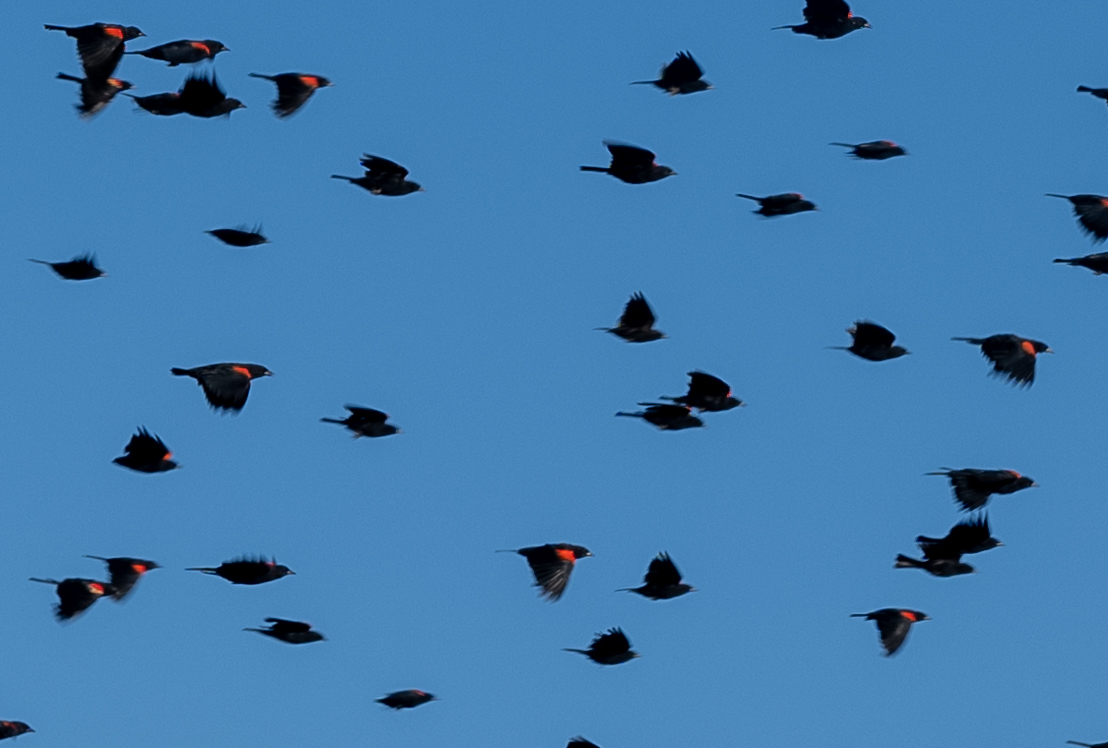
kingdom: Animalia
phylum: Chordata
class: Aves
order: Passeriformes
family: Icteridae
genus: Agelaius
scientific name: Agelaius phoeniceus
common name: Red-winged blackbird
